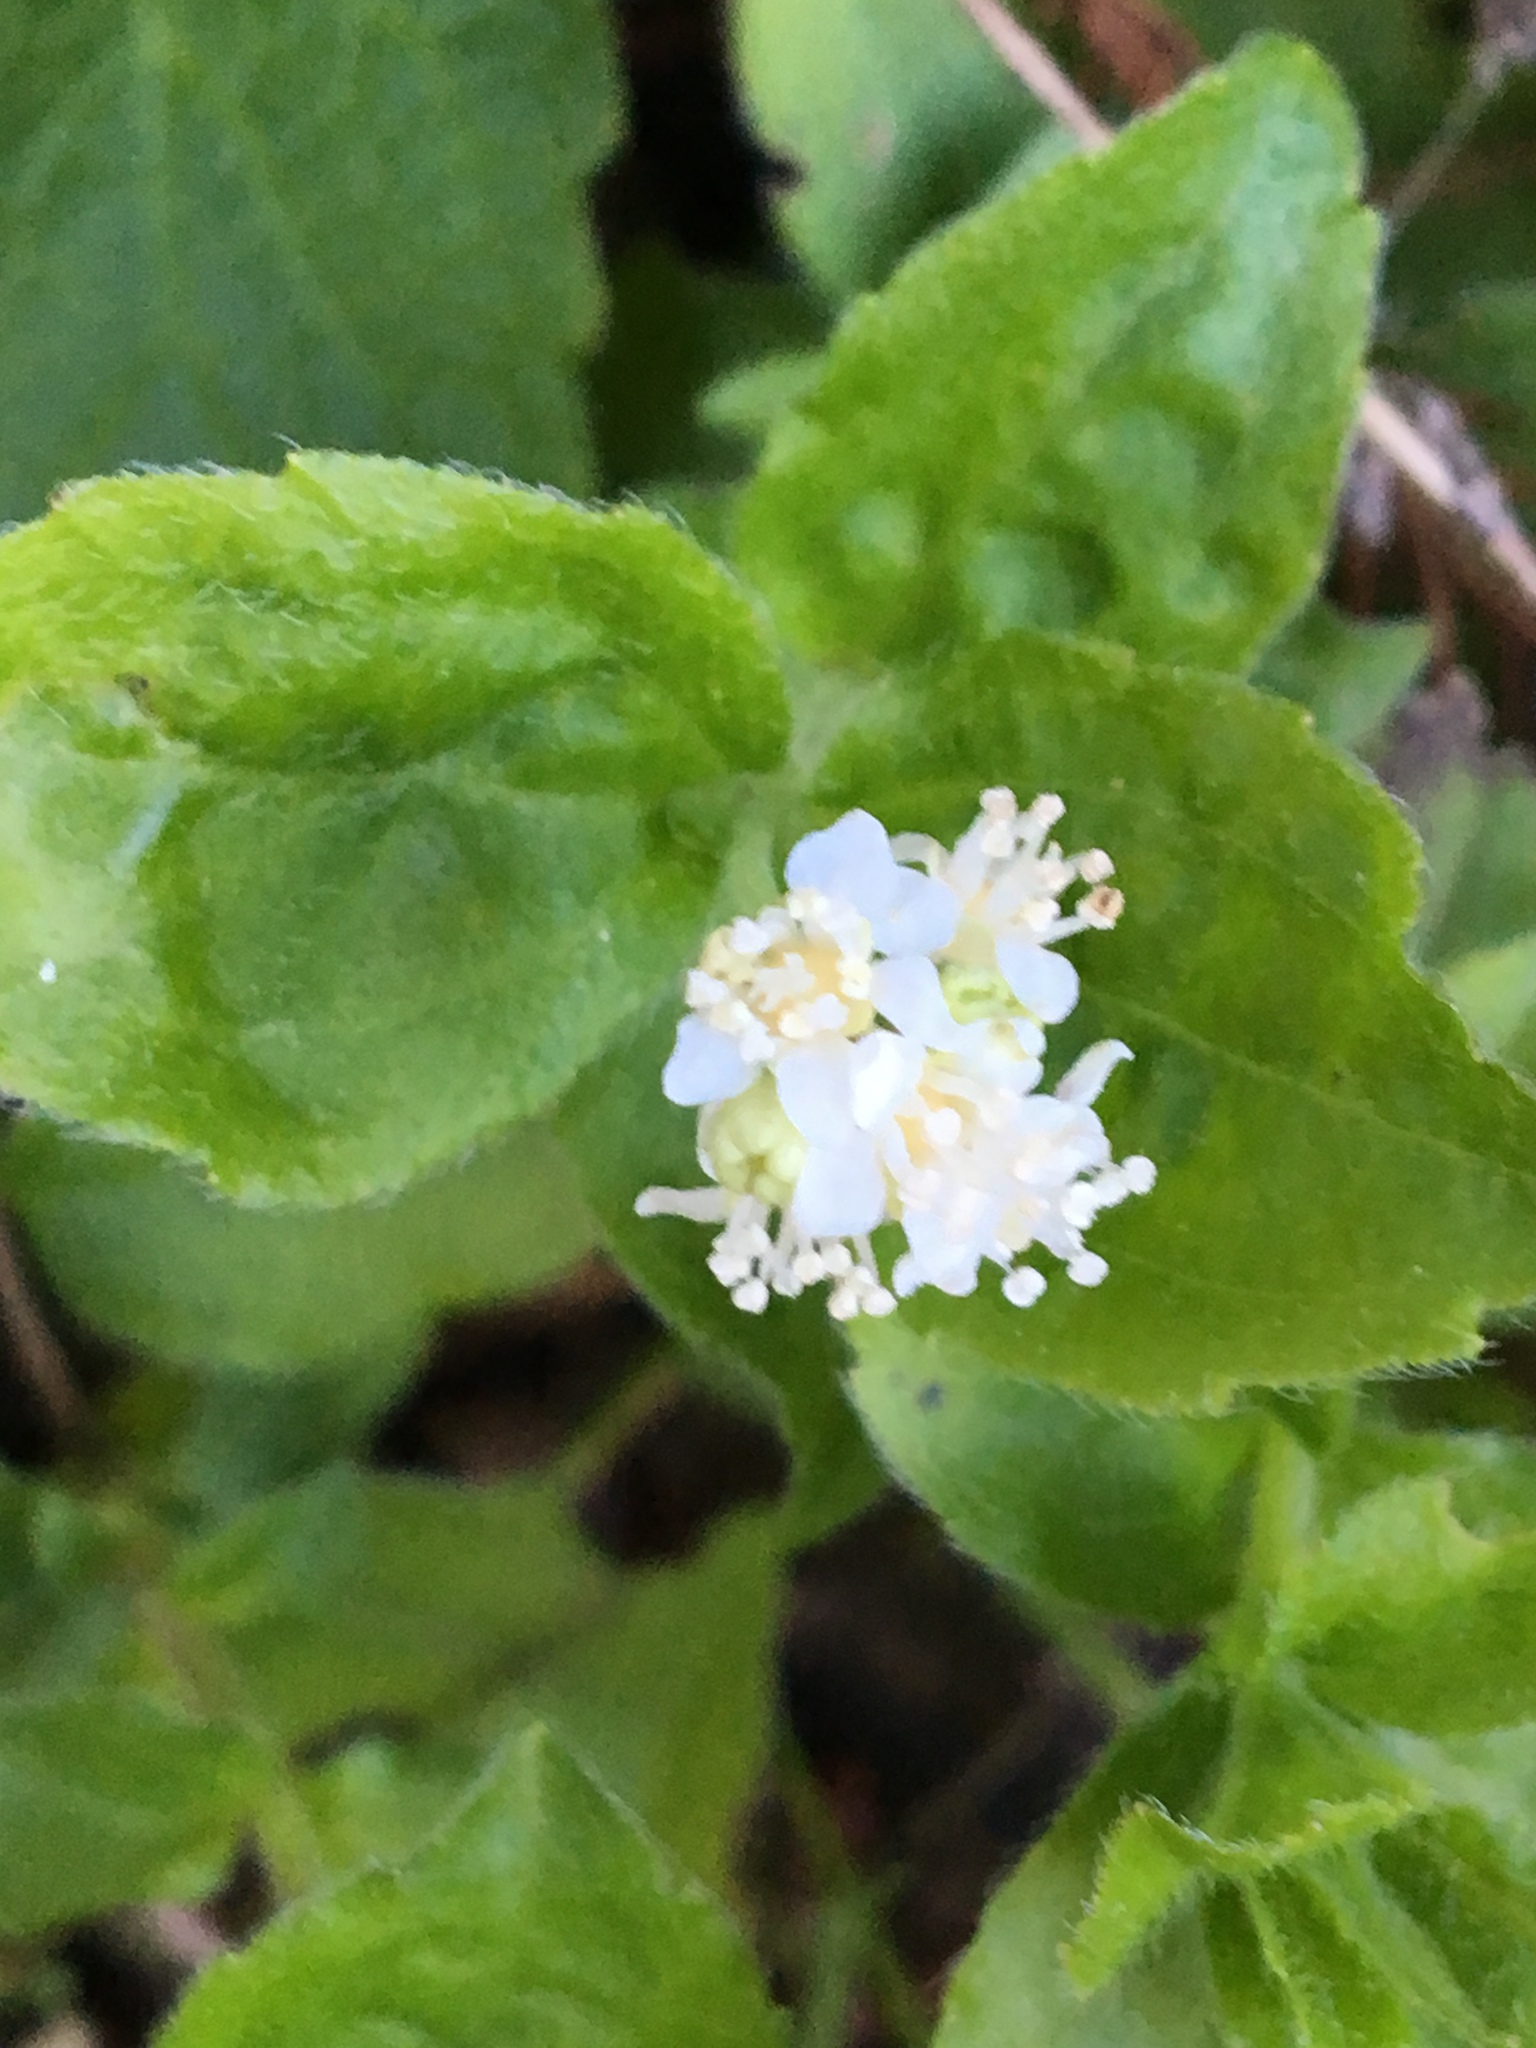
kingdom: Plantae
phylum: Tracheophyta
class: Magnoliopsida
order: Cornales
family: Hydrangeaceae
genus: Whipplea
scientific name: Whipplea modesta
